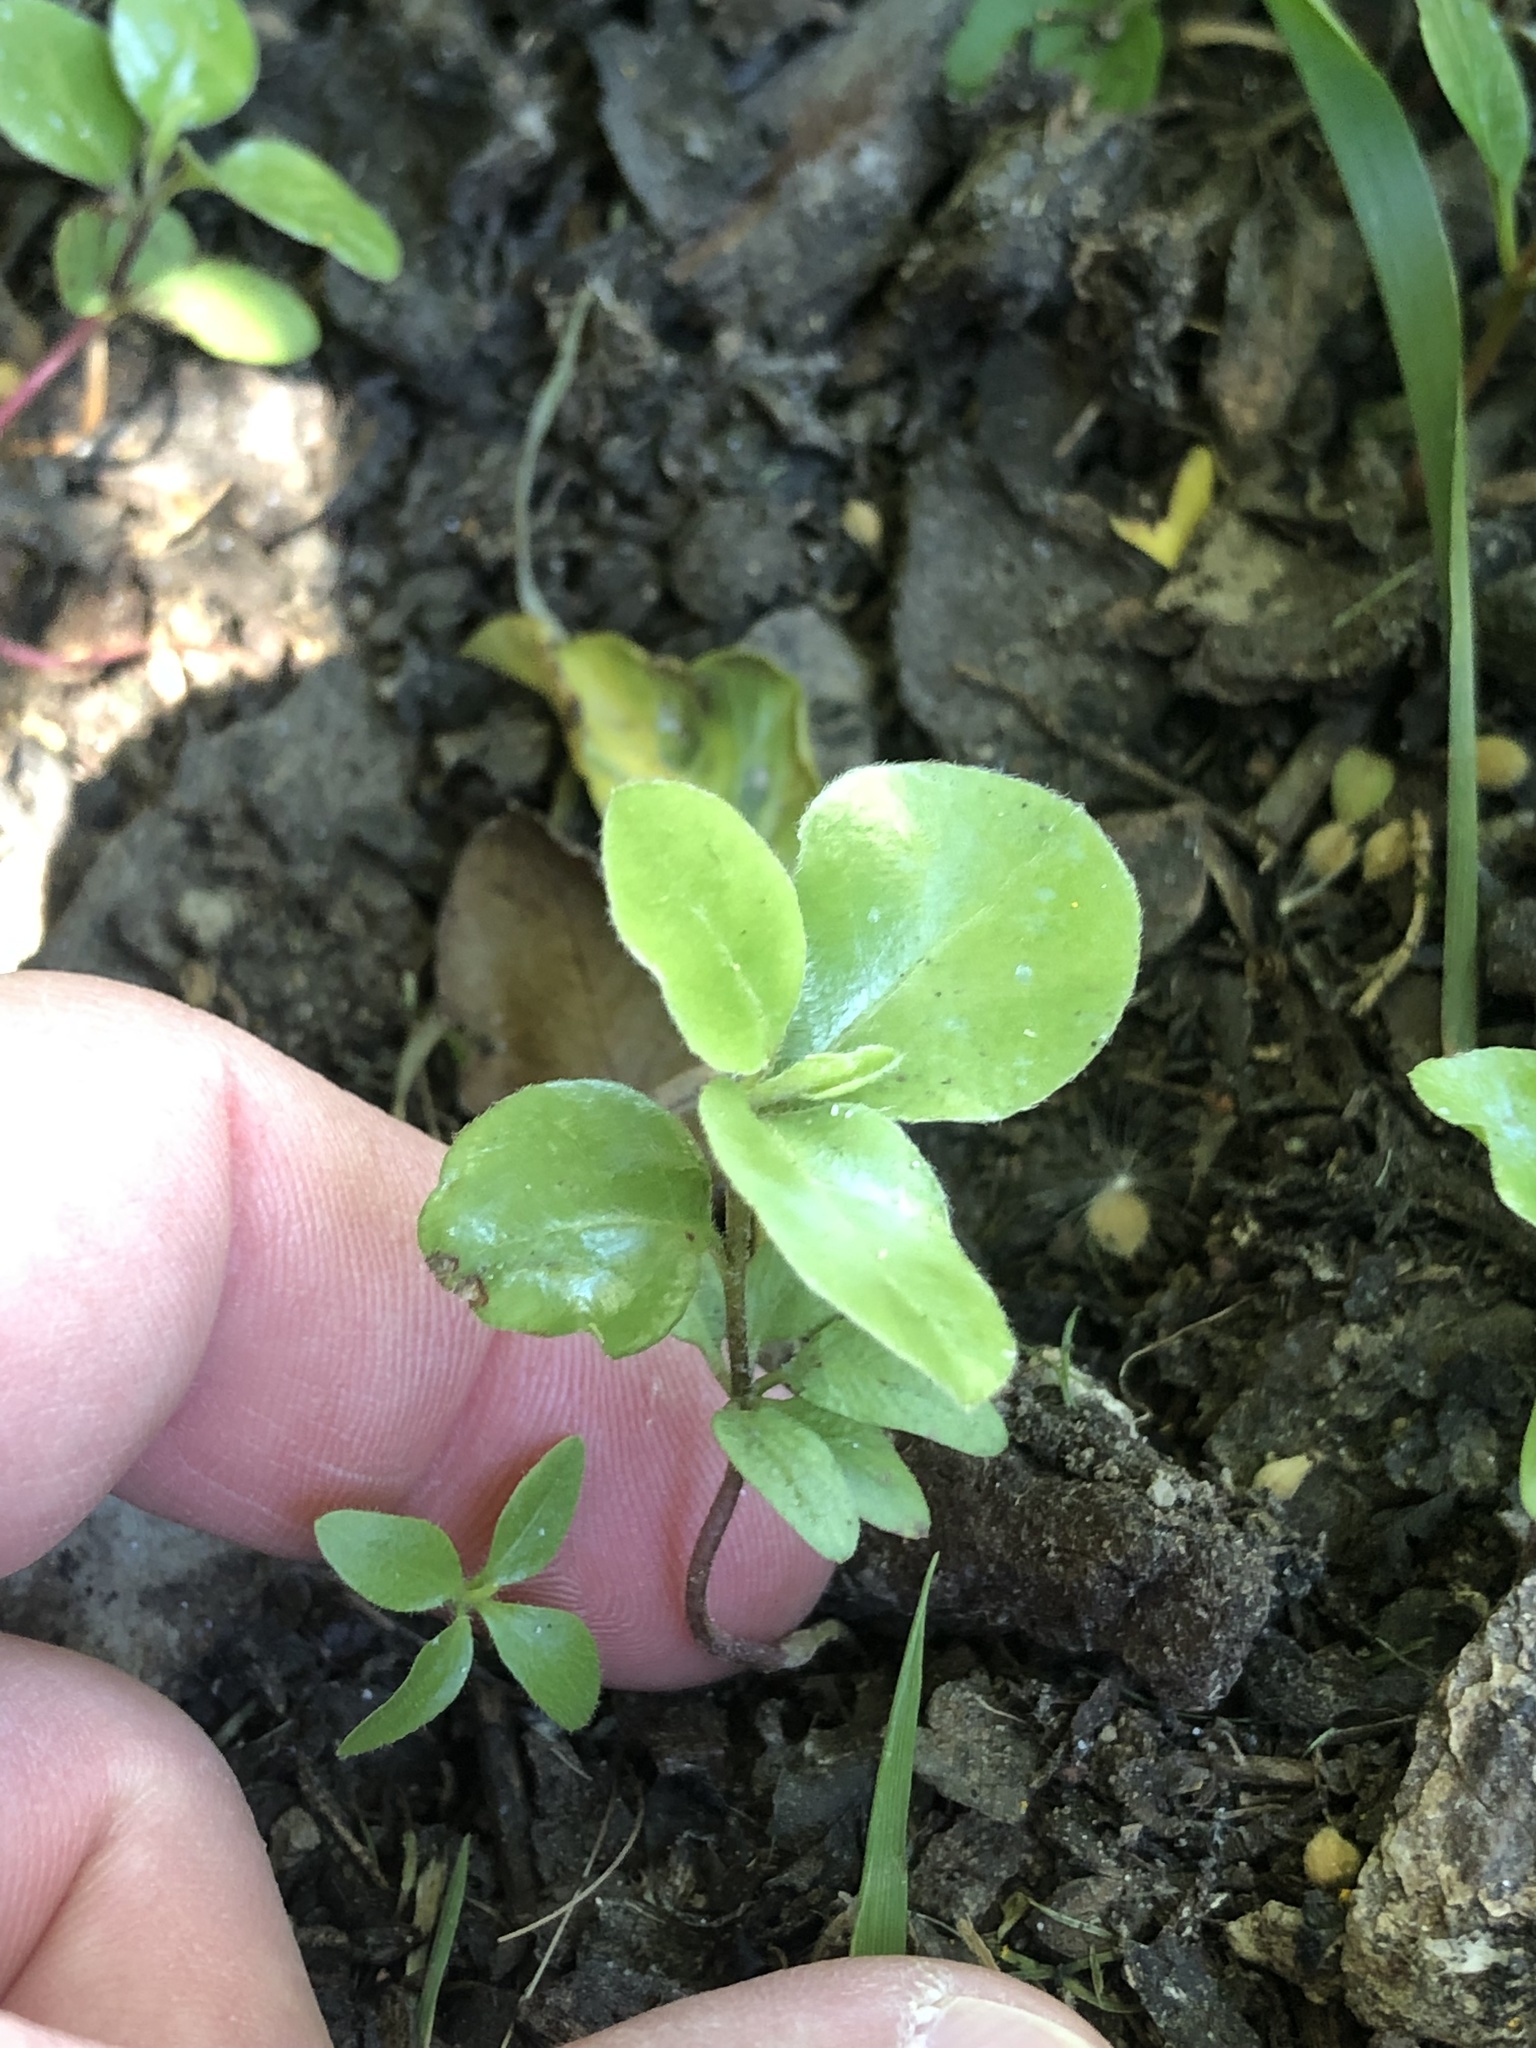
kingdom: Plantae
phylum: Tracheophyta
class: Magnoliopsida
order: Apiales
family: Pittosporaceae
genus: Pittosporum
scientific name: Pittosporum tenuifolium
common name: Kohuhu
